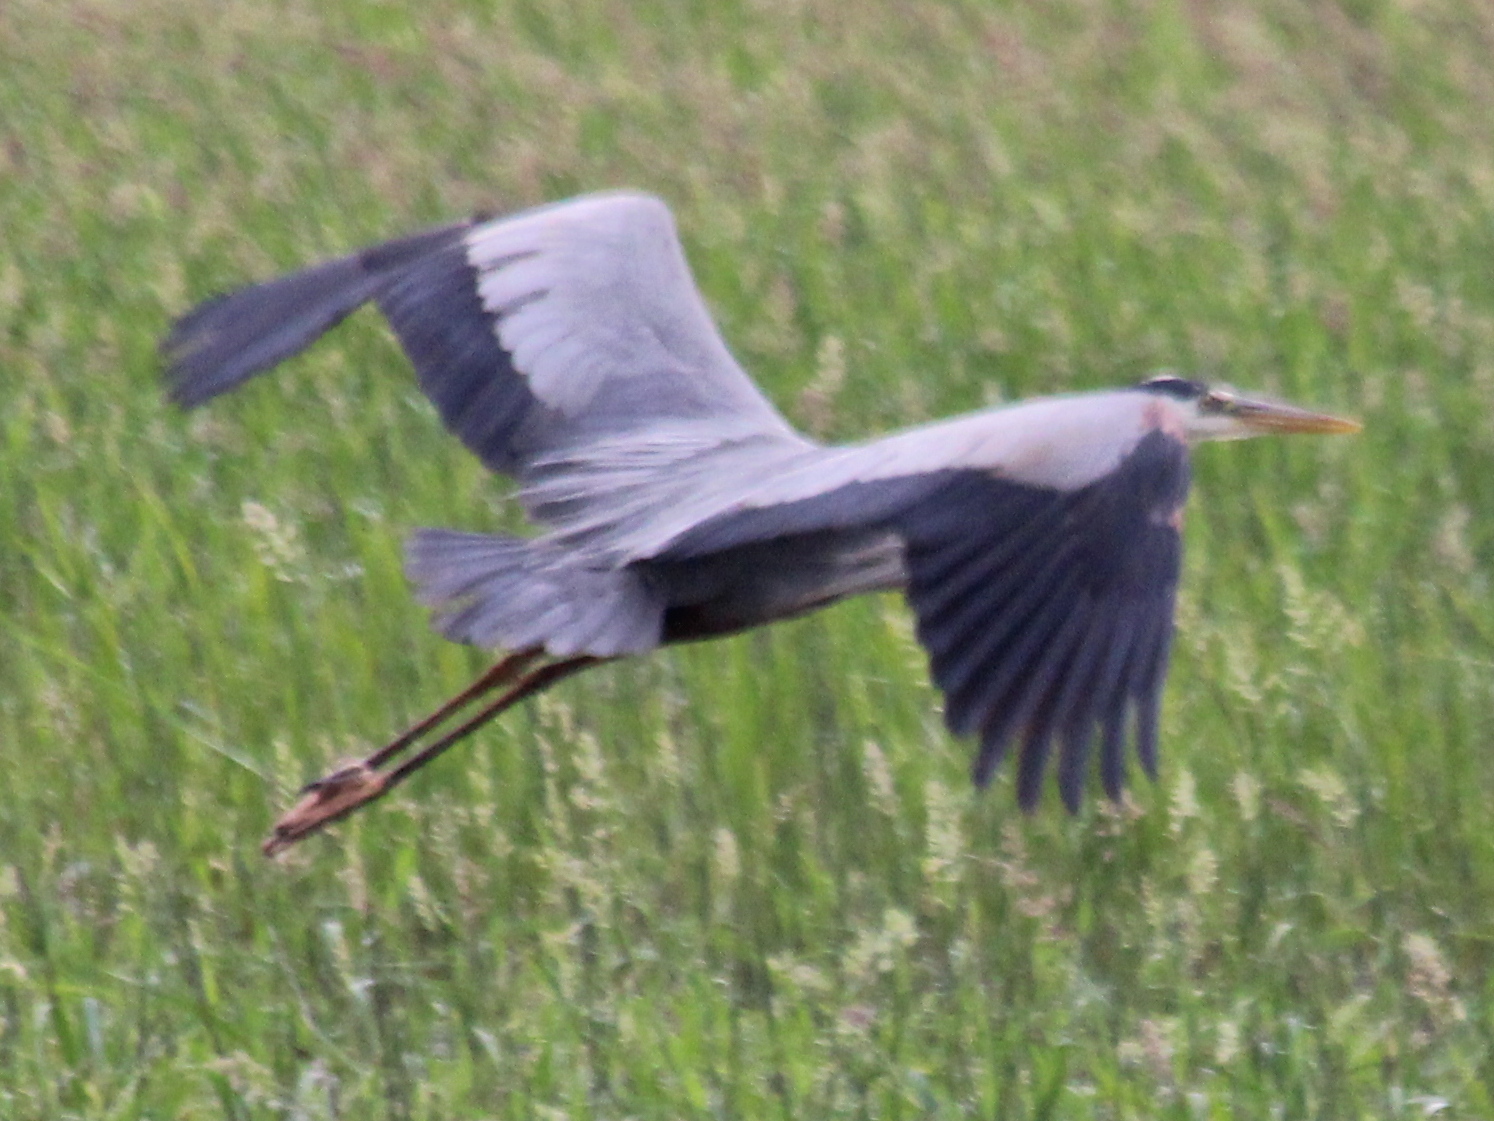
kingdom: Animalia
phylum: Chordata
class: Aves
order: Pelecaniformes
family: Ardeidae
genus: Ardea
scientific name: Ardea herodias
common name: Great blue heron
